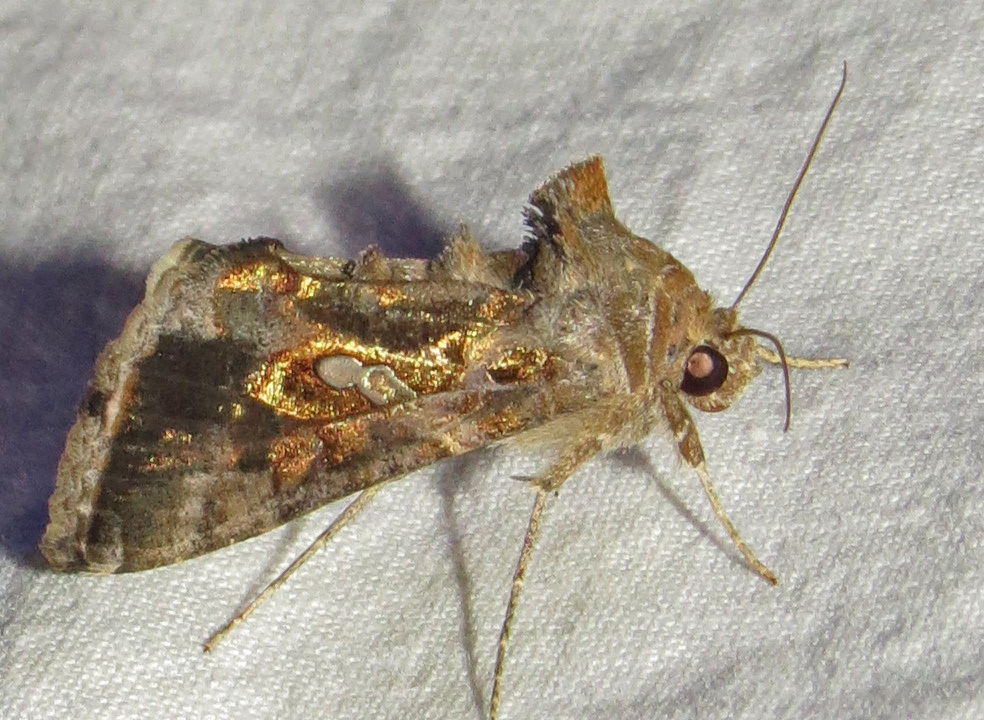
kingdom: Animalia
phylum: Arthropoda
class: Insecta
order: Lepidoptera
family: Noctuidae
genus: Chrysodeixis
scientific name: Chrysodeixis includens
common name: Cutworm moth
